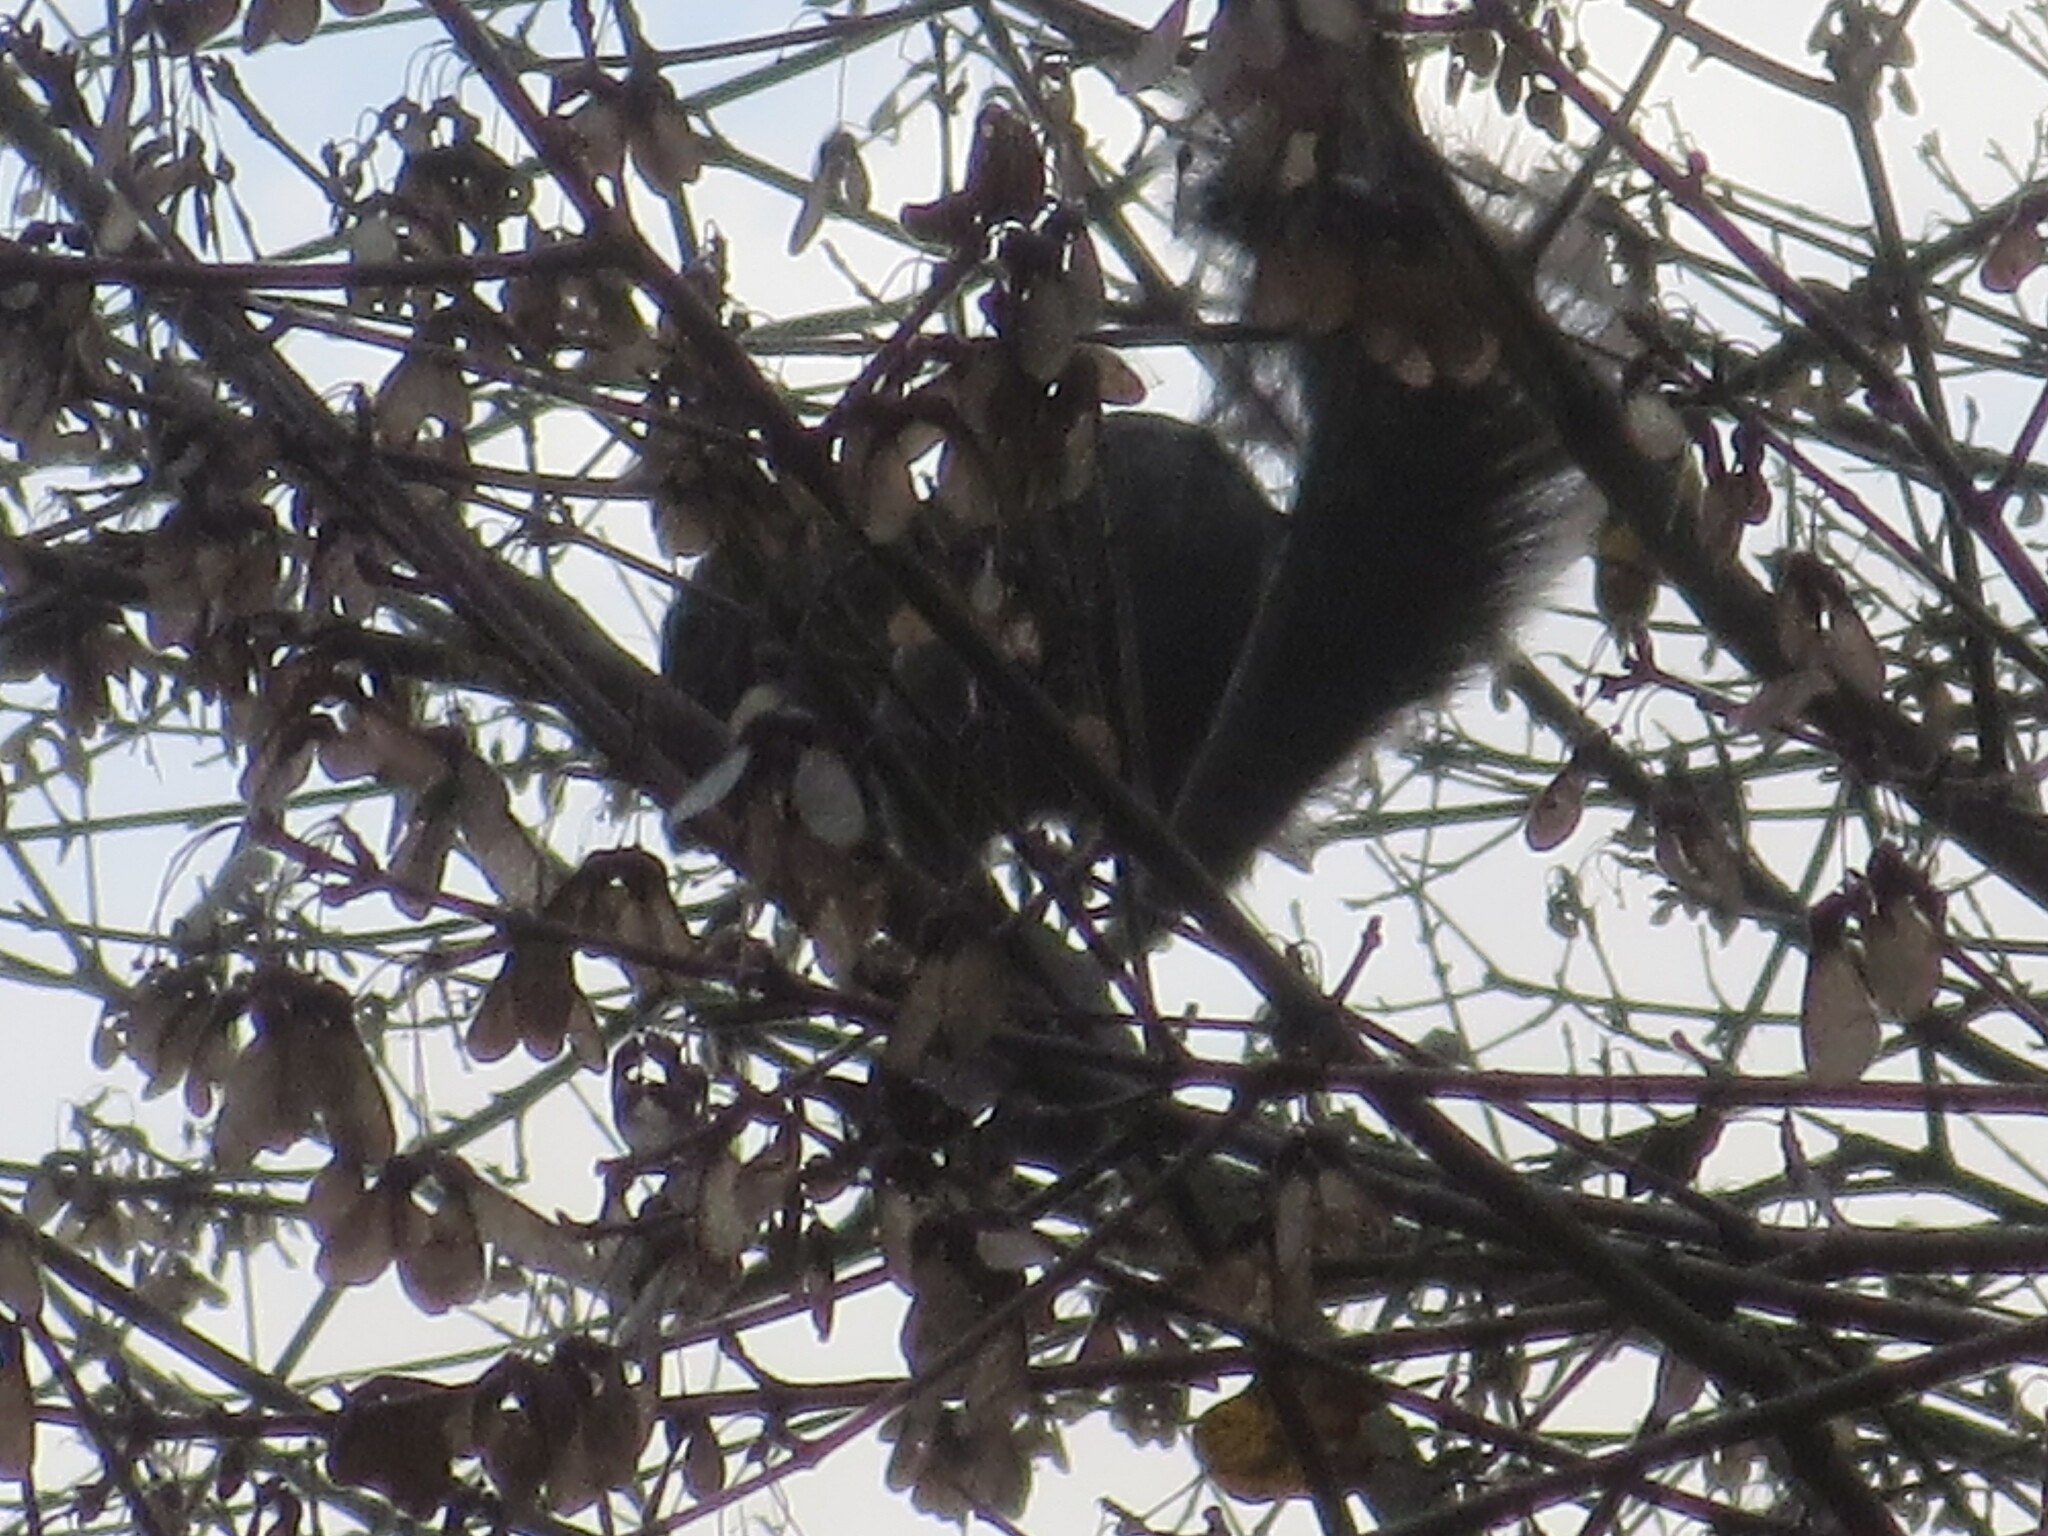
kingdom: Animalia
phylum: Chordata
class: Mammalia
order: Rodentia
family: Sciuridae
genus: Sciurus
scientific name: Sciurus carolinensis
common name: Eastern gray squirrel
